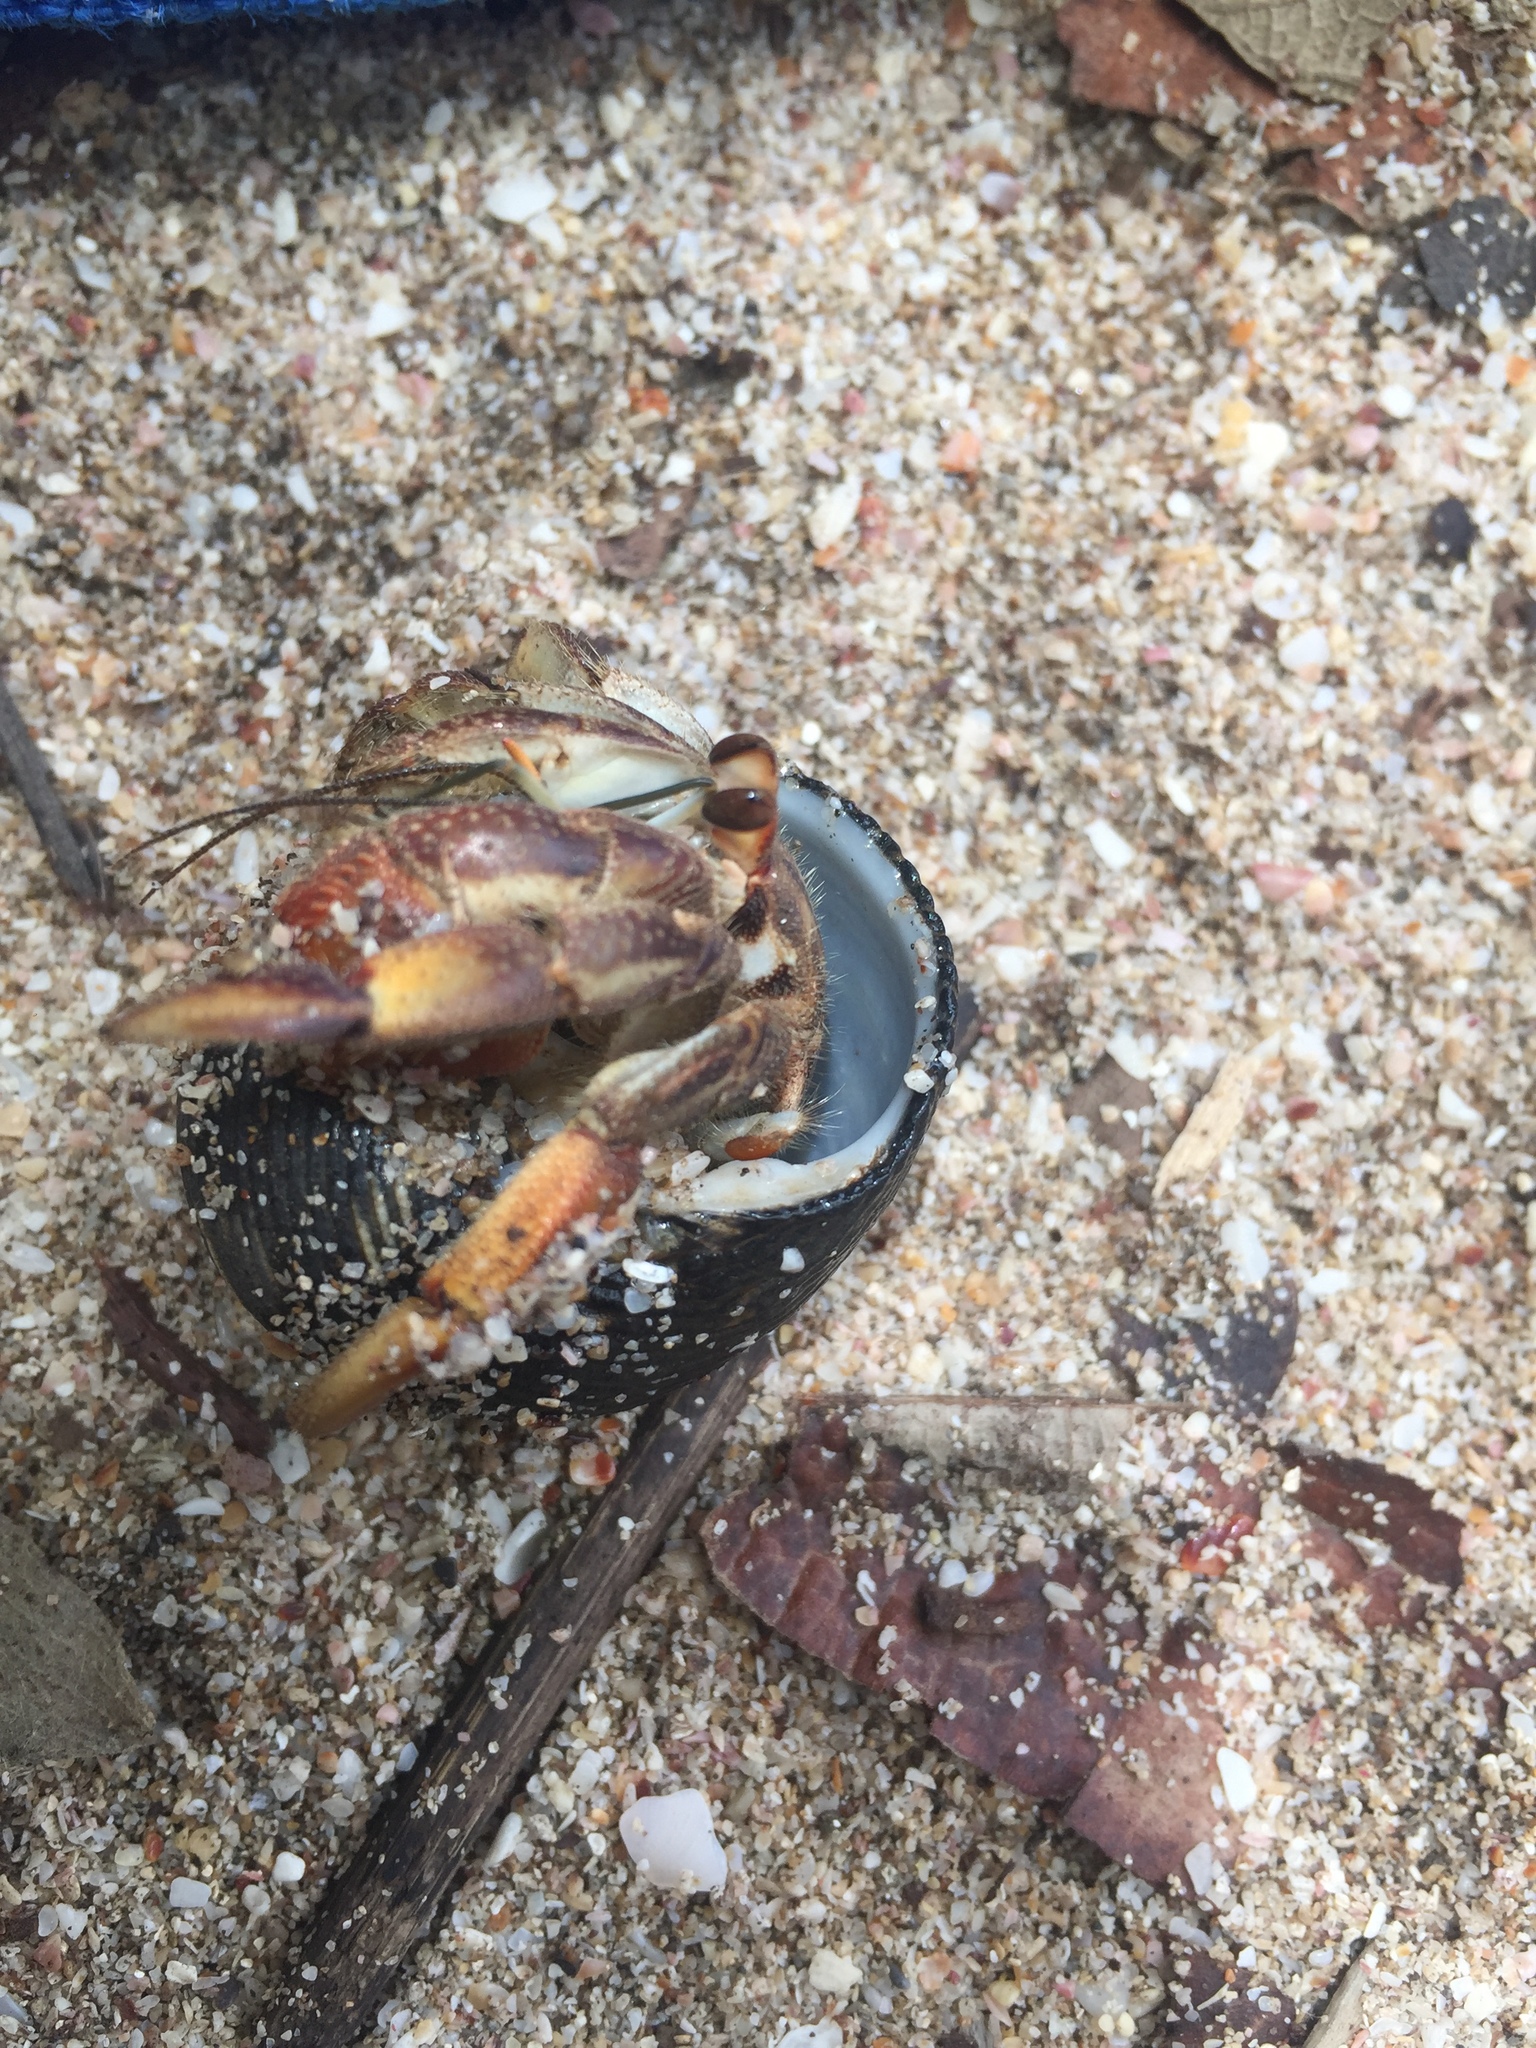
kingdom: Animalia
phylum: Arthropoda
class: Malacostraca
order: Decapoda
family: Coenobitidae
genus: Coenobita
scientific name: Coenobita compressus
